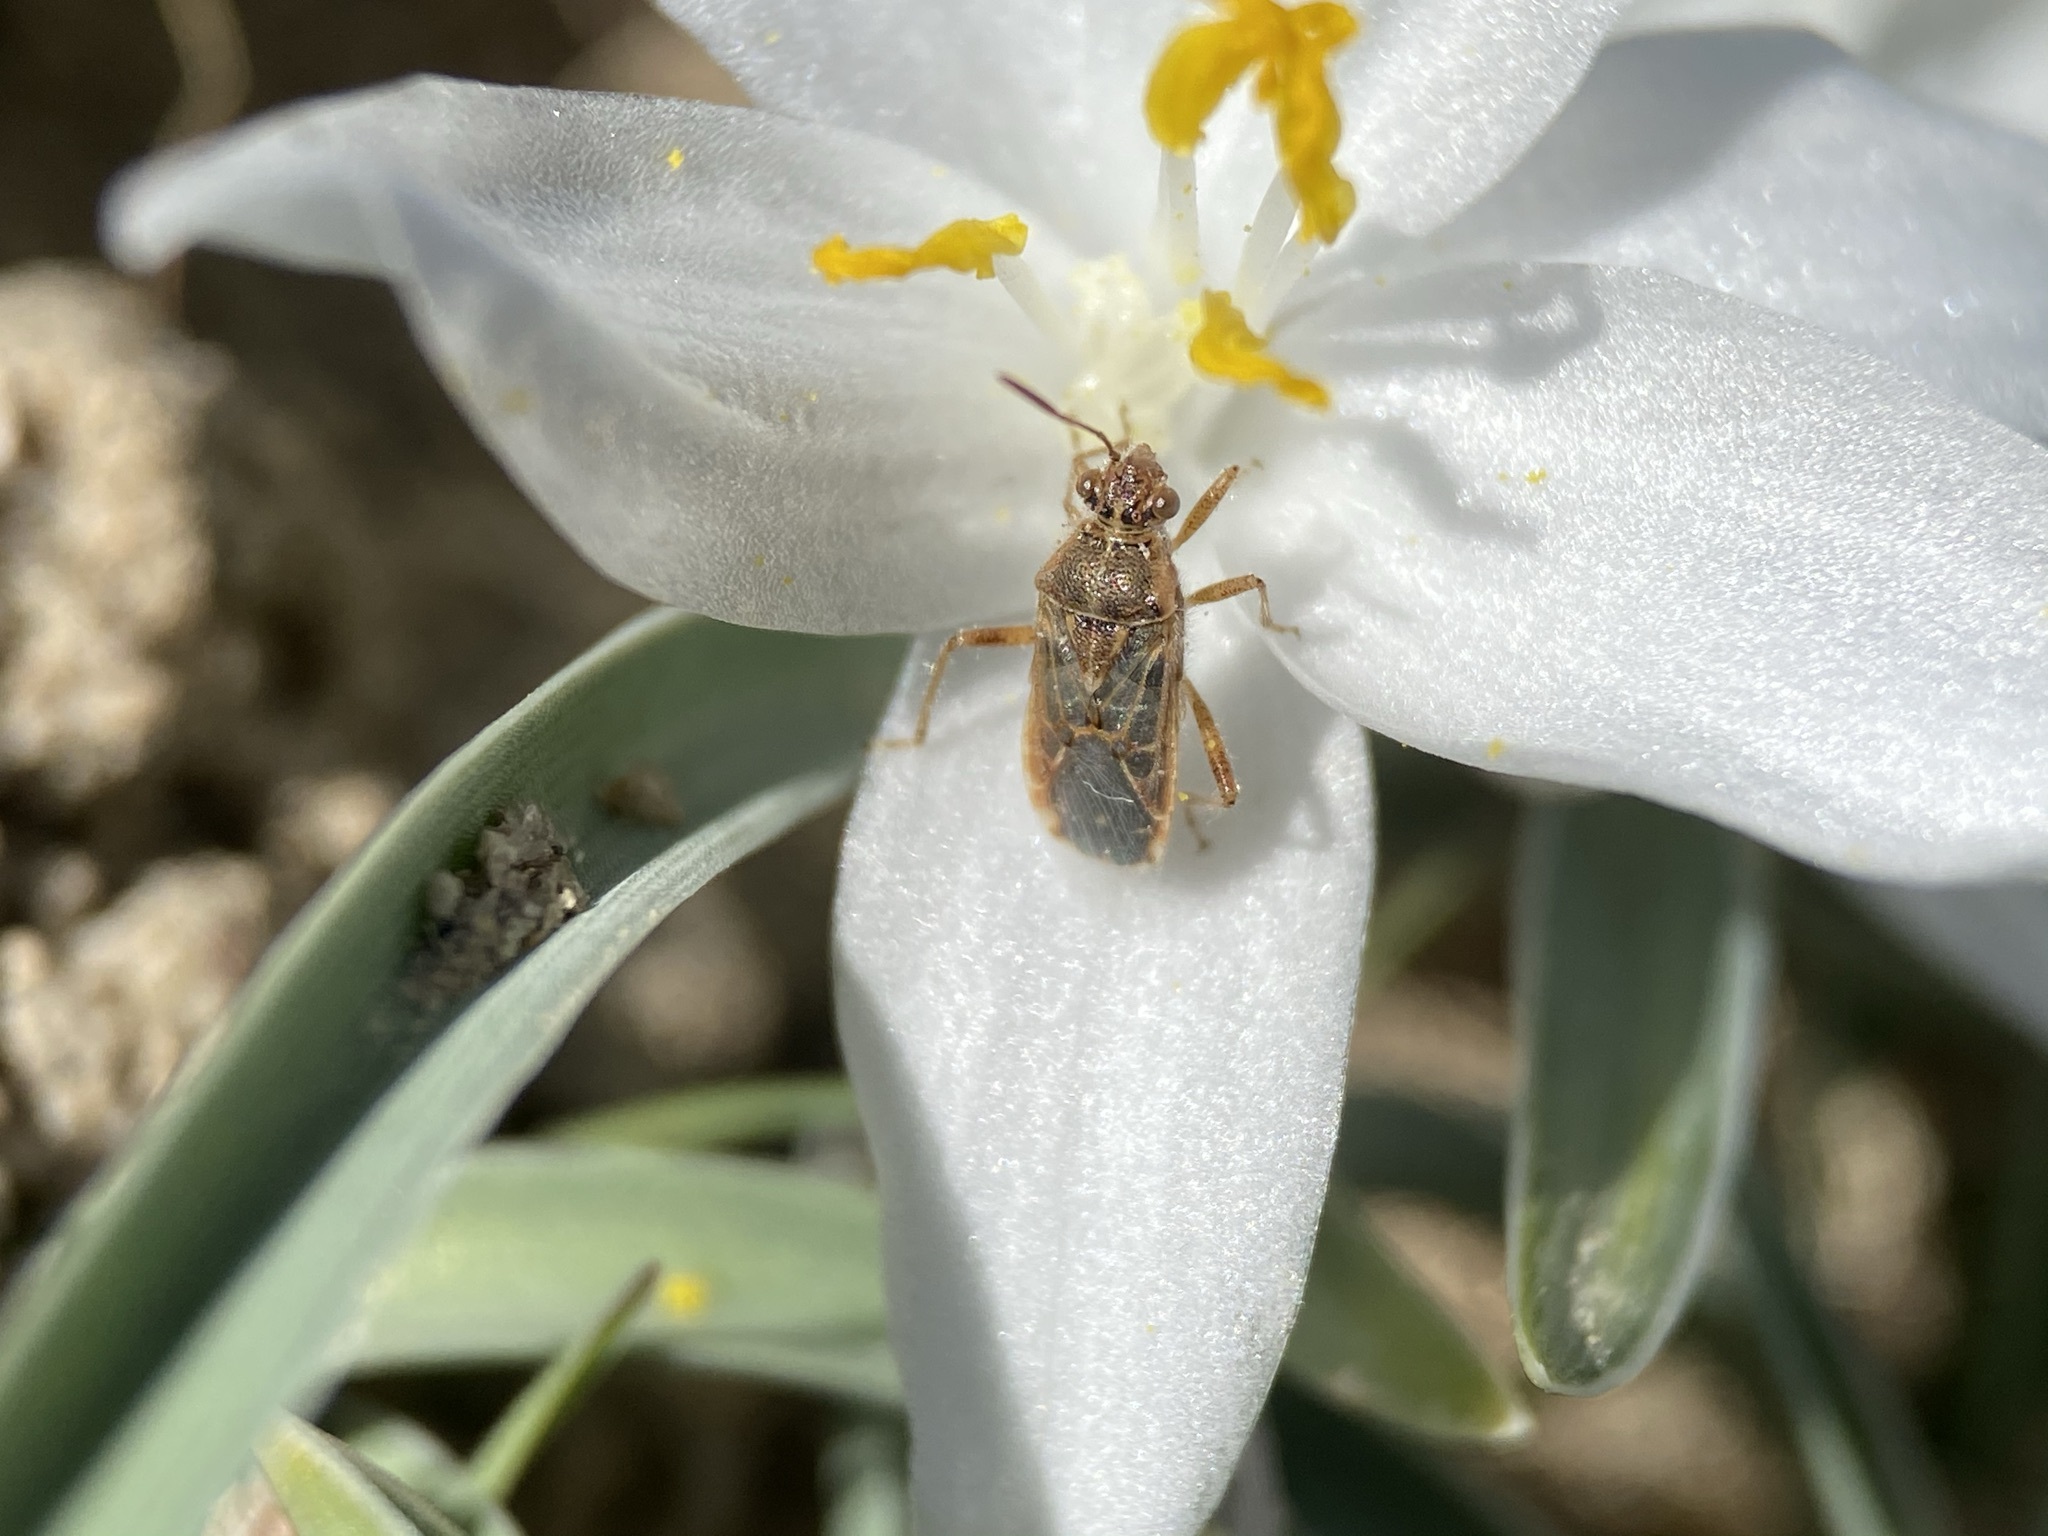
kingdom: Animalia
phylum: Arthropoda
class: Insecta
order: Hemiptera
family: Rhopalidae
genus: Liorhyssus
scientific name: Liorhyssus hyalinus
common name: Scentless plant bug
